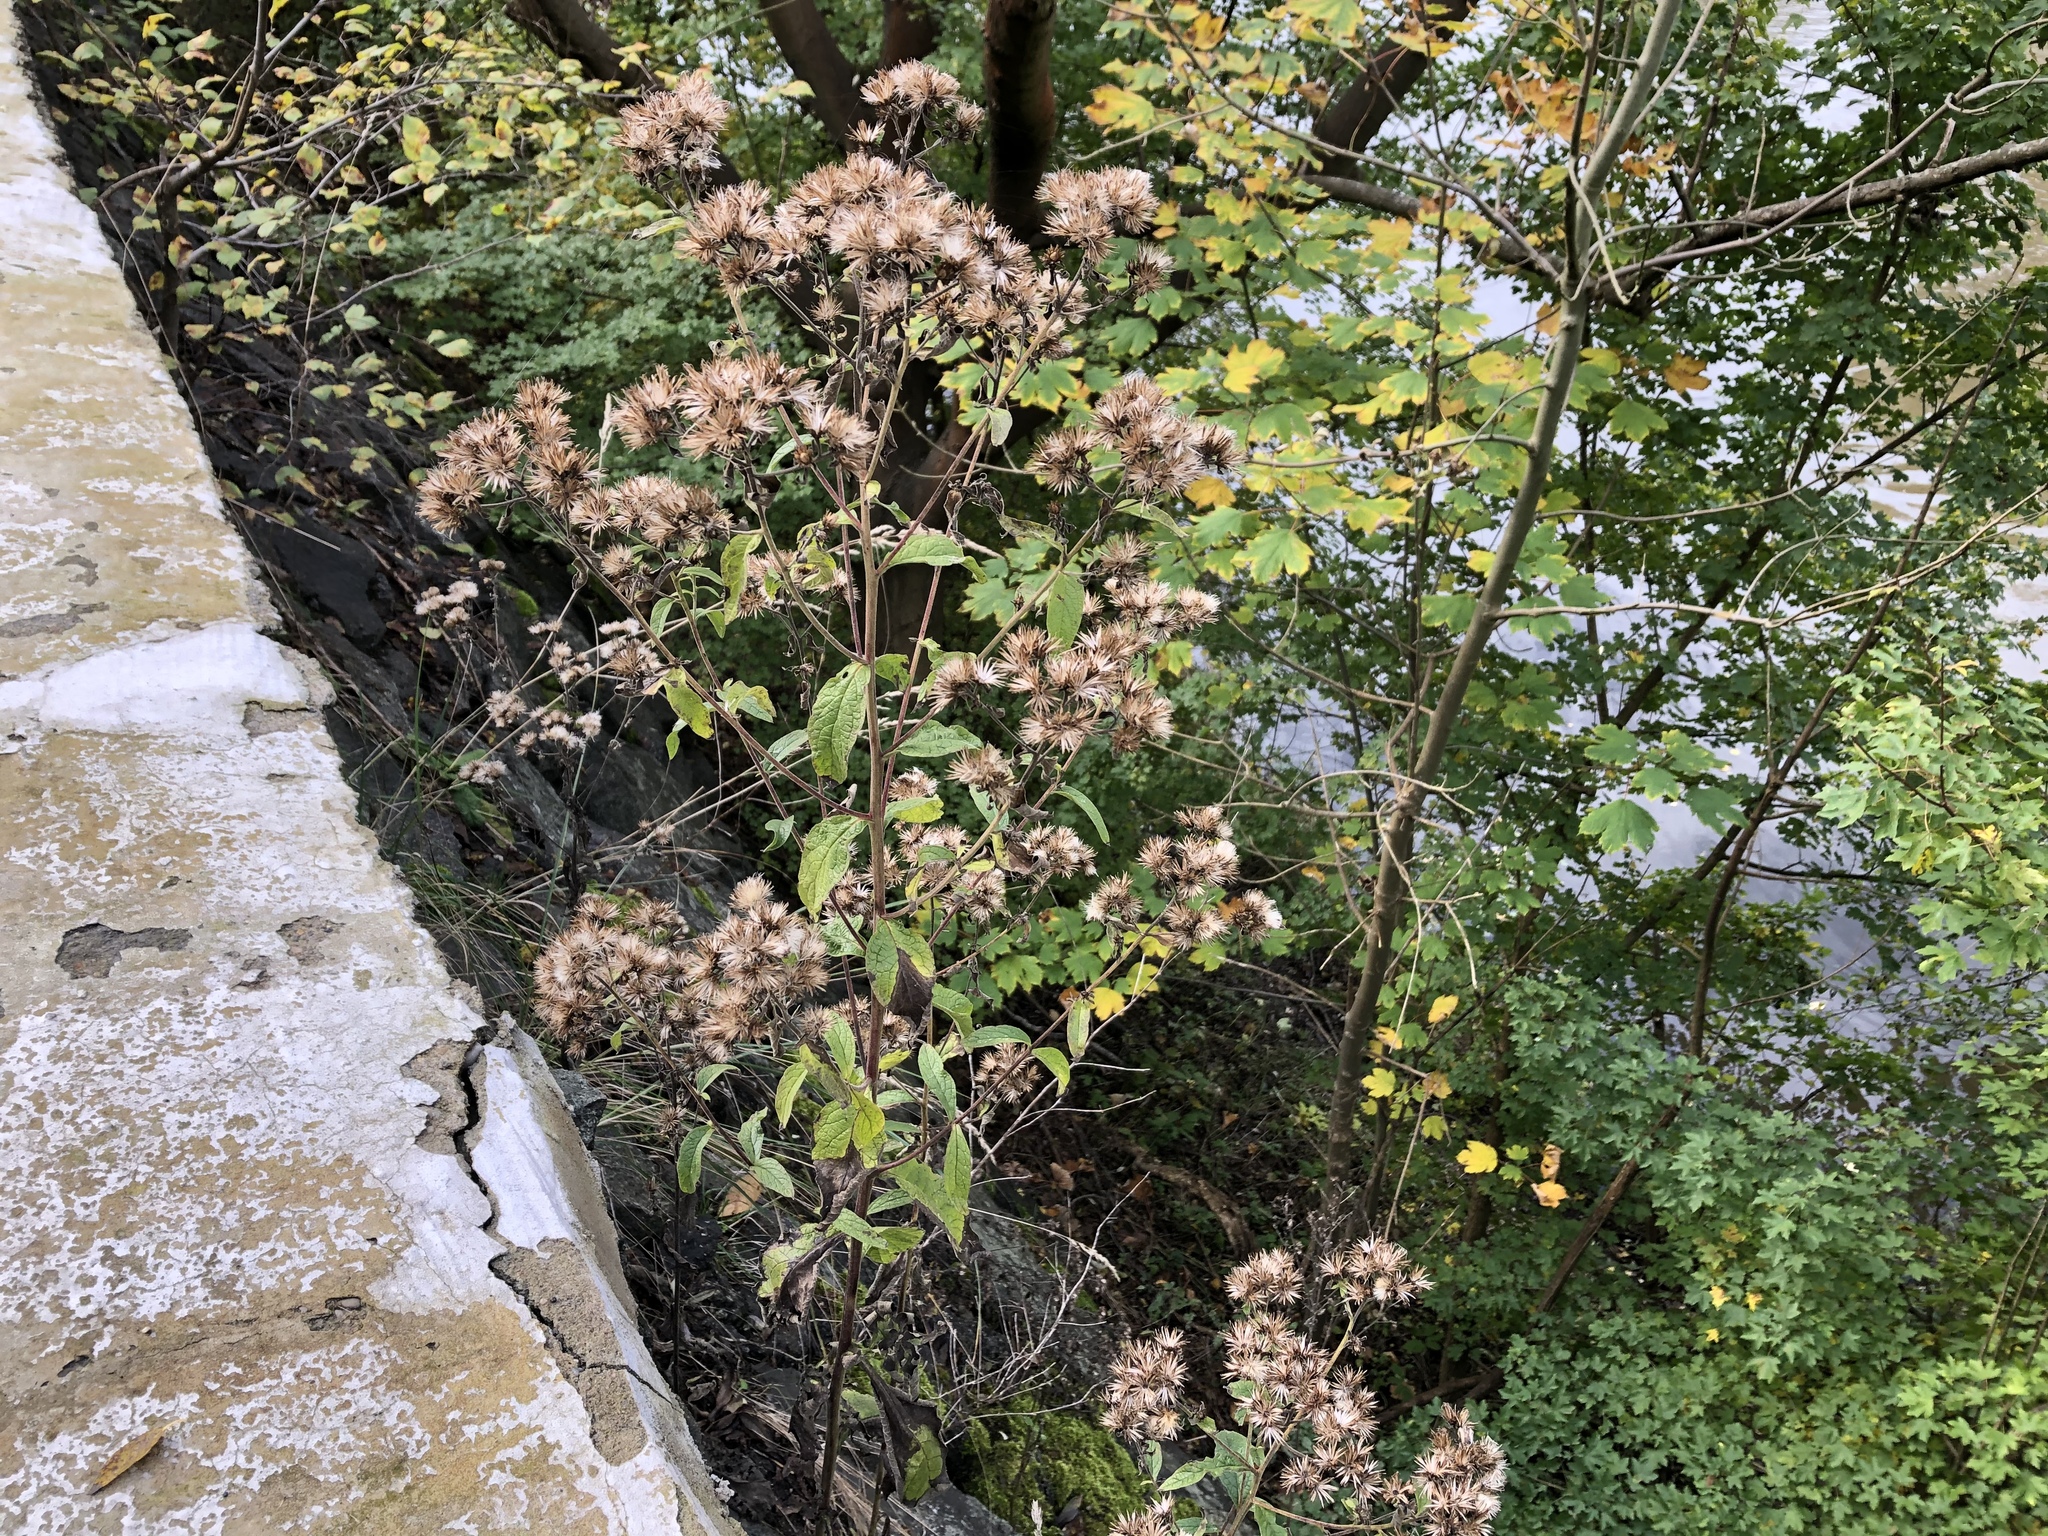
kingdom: Plantae
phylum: Tracheophyta
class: Magnoliopsida
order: Asterales
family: Asteraceae
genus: Pentanema
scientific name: Pentanema squarrosum
